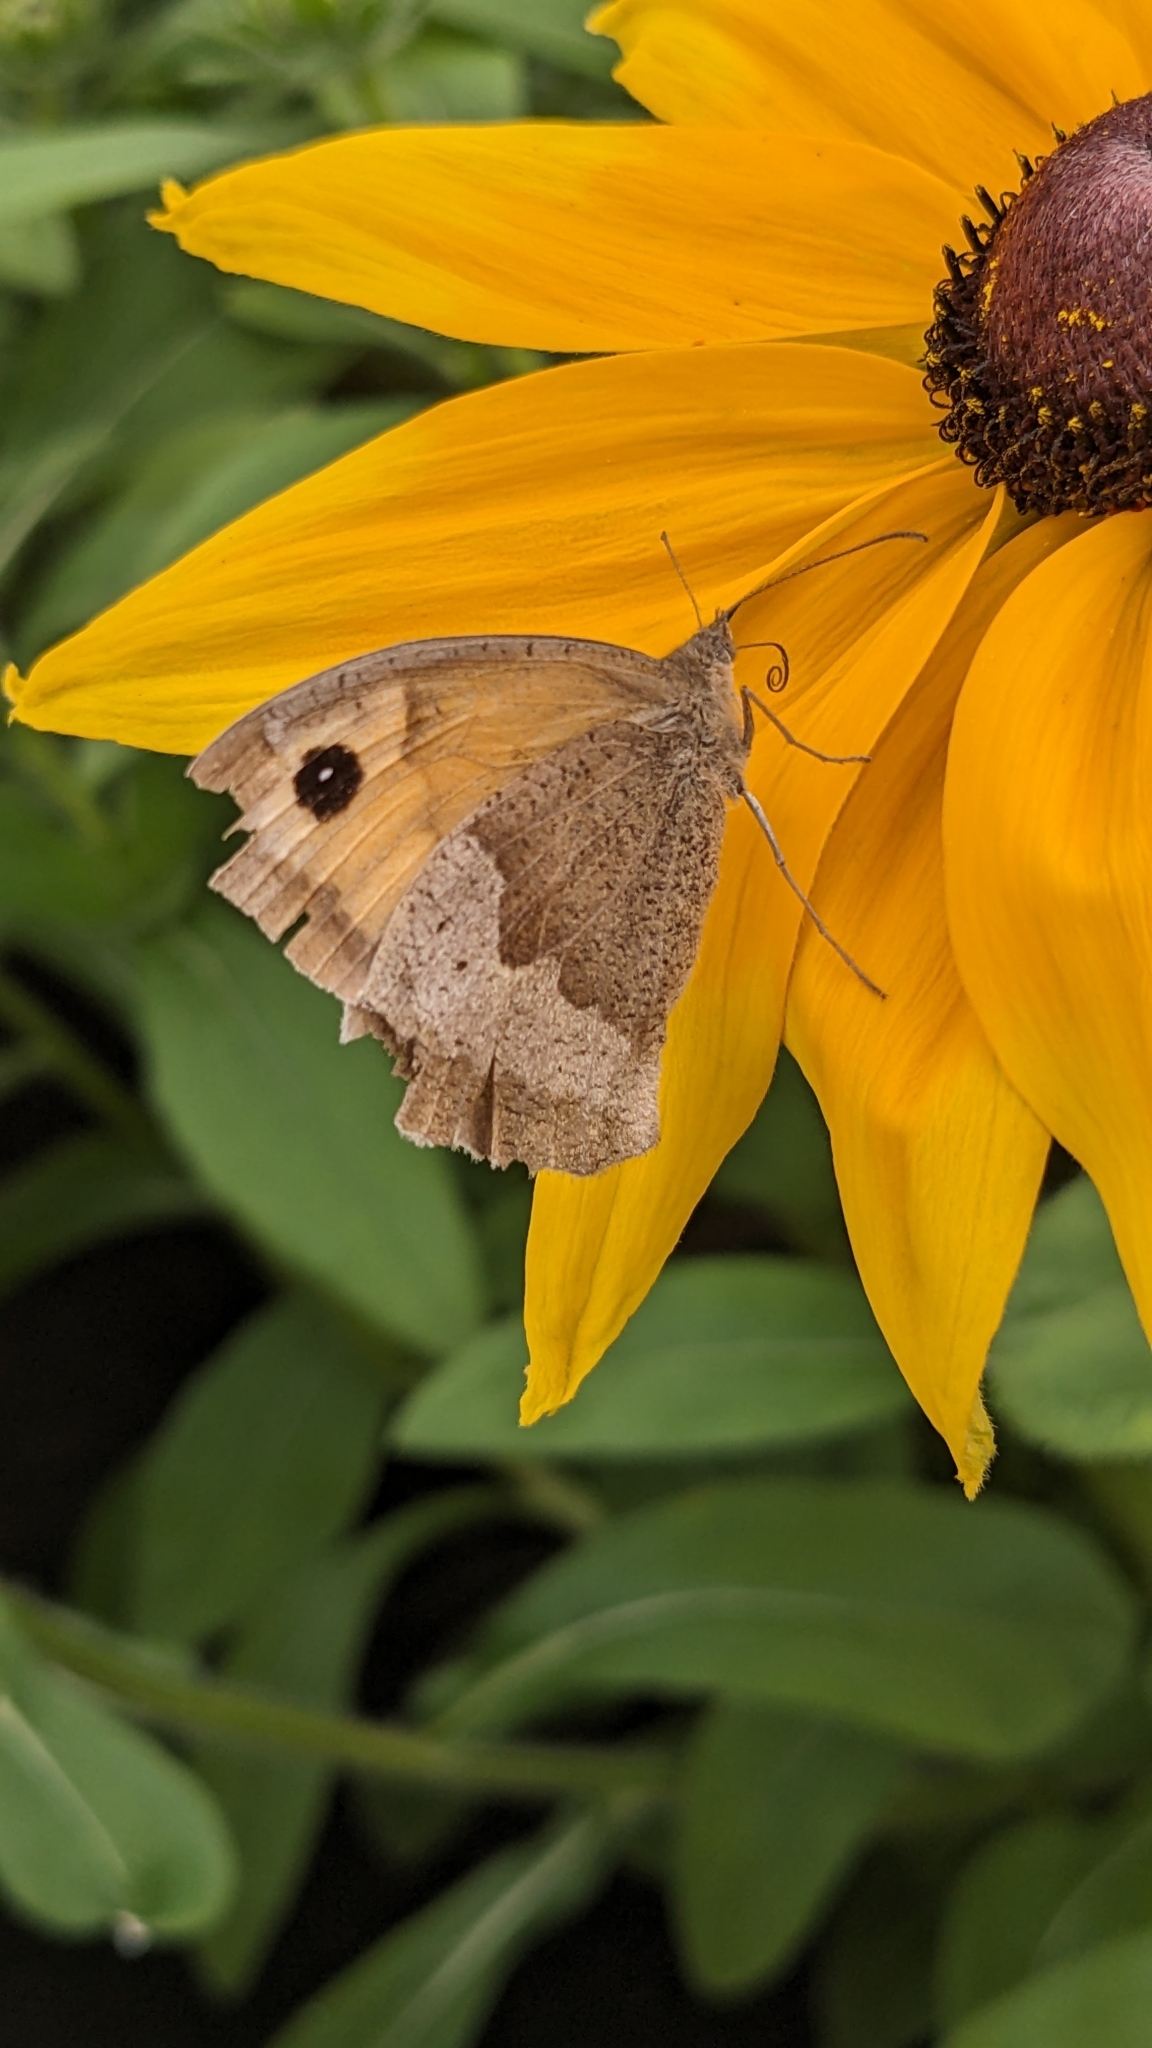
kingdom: Animalia
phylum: Arthropoda
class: Insecta
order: Lepidoptera
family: Nymphalidae
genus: Maniola
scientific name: Maniola jurtina
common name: Meadow brown
